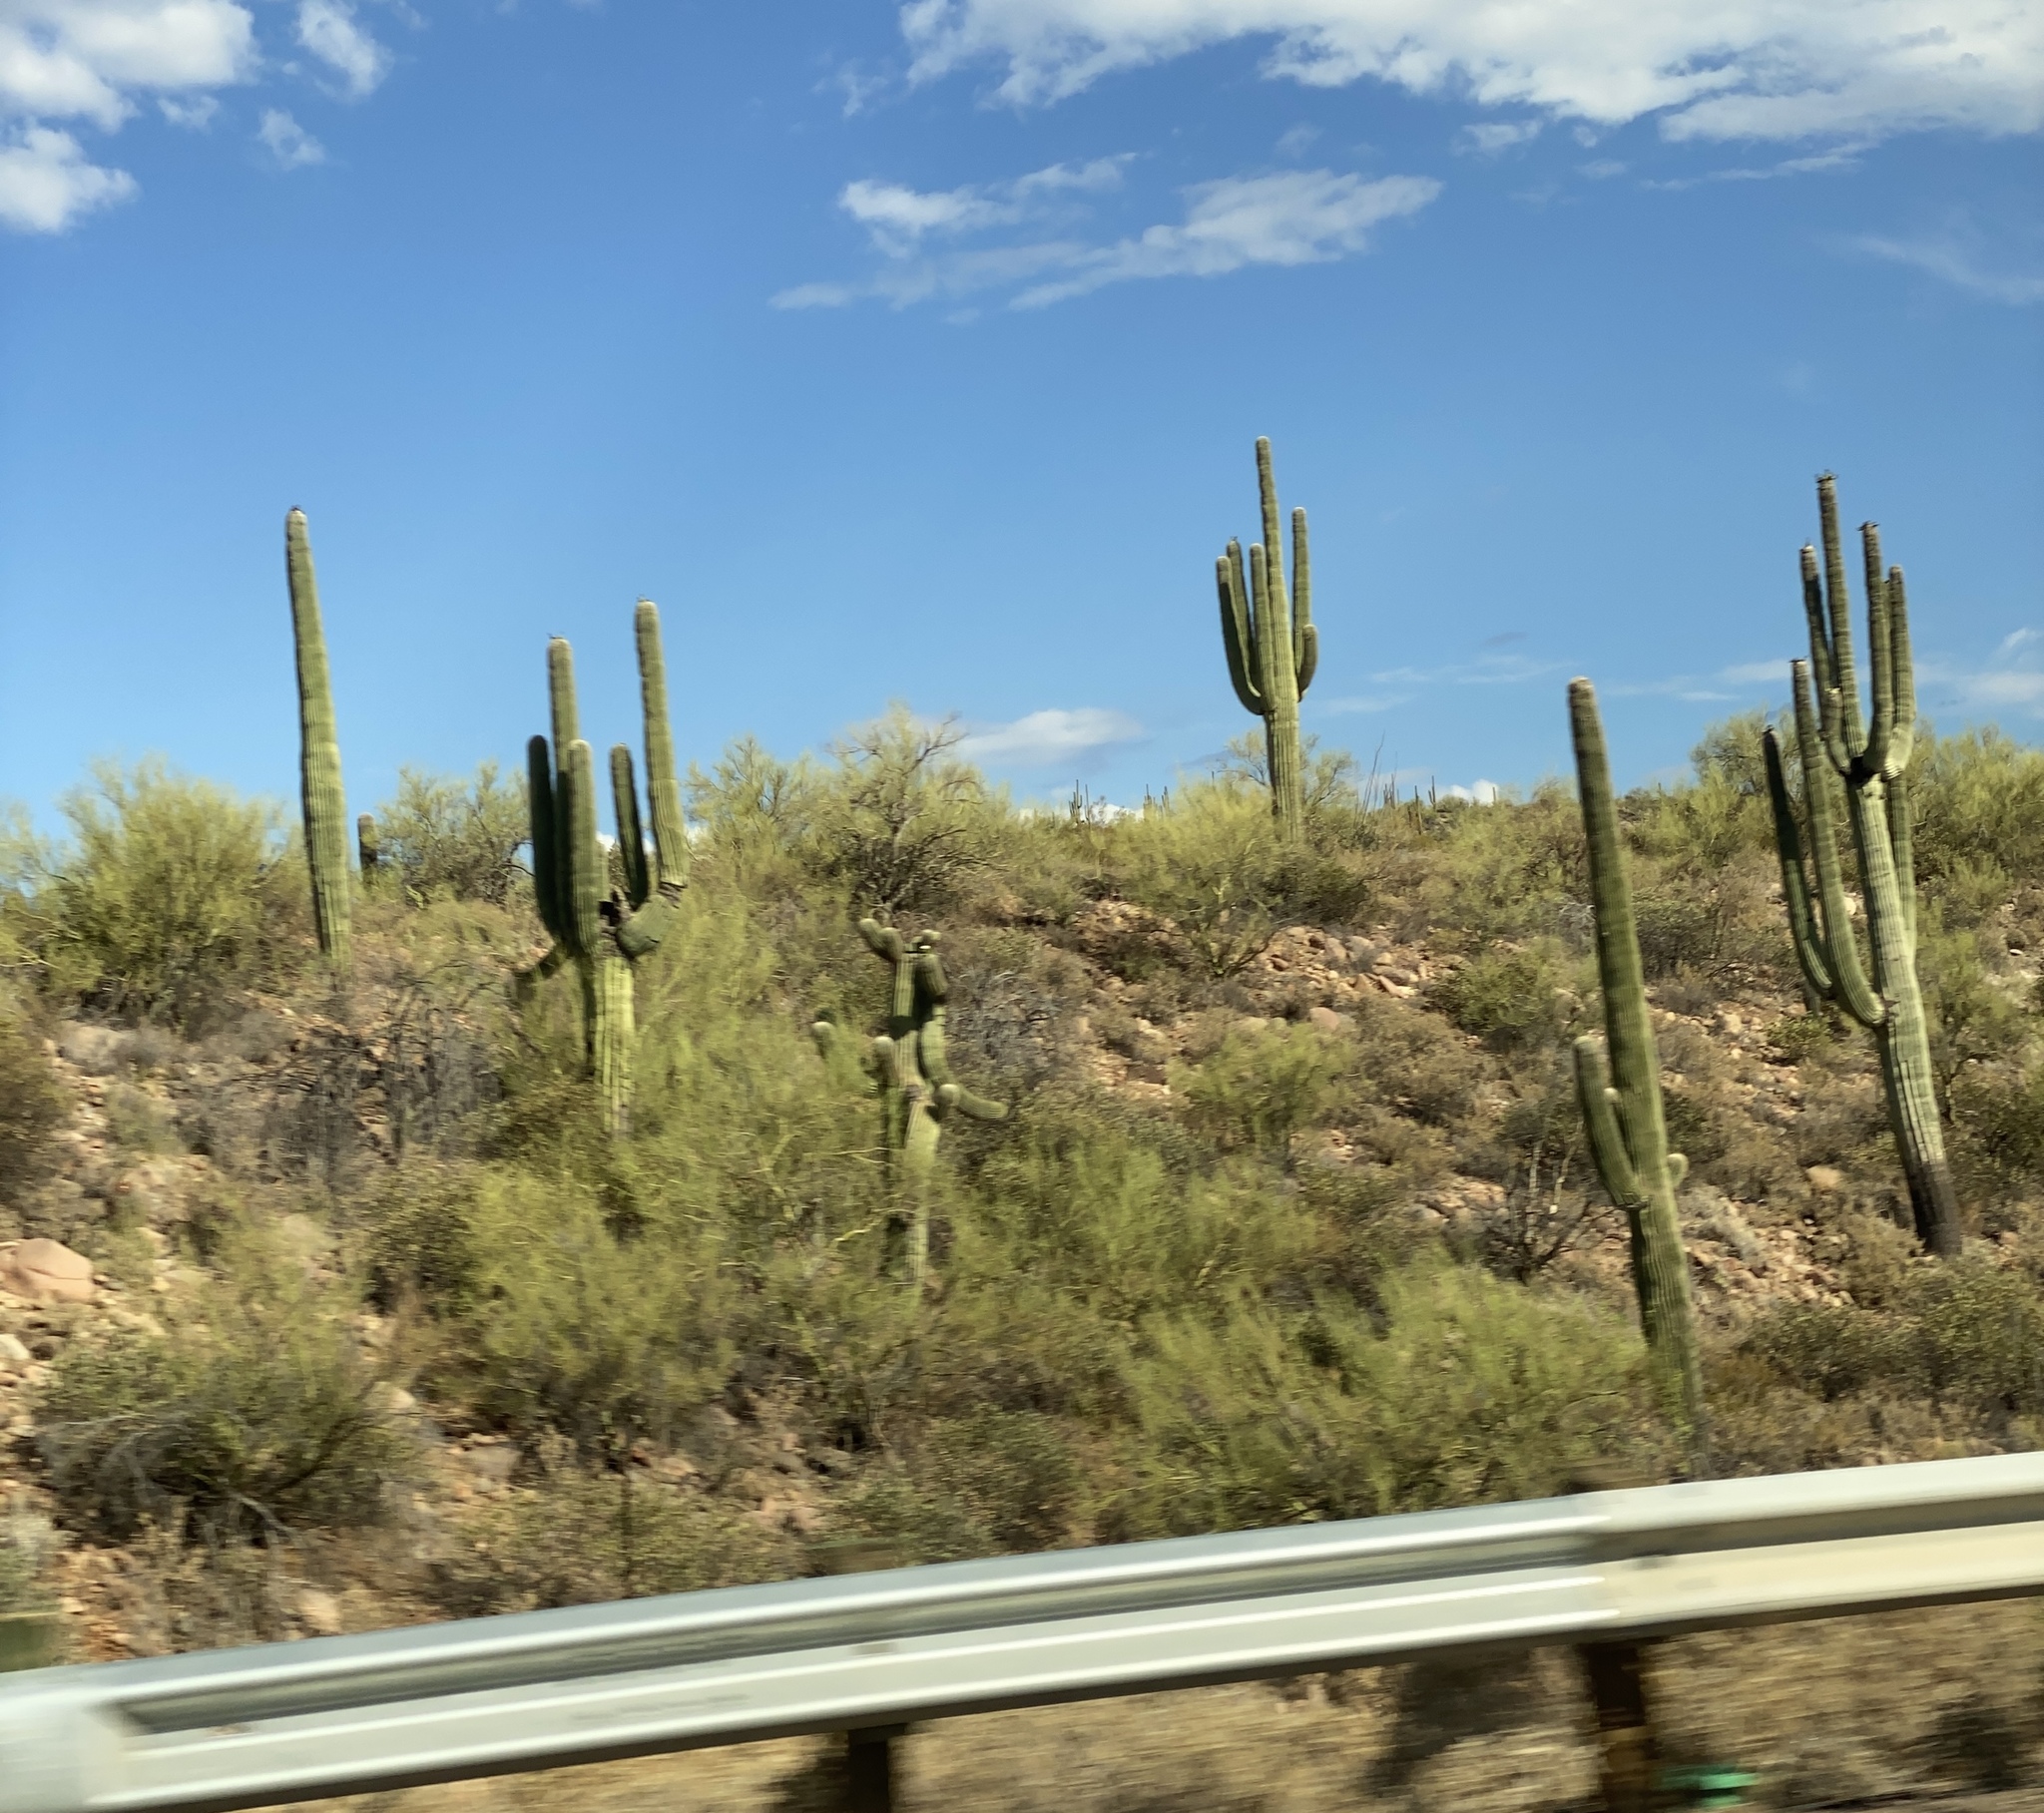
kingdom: Plantae
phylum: Tracheophyta
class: Magnoliopsida
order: Caryophyllales
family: Cactaceae
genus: Carnegiea
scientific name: Carnegiea gigantea
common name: Saguaro
